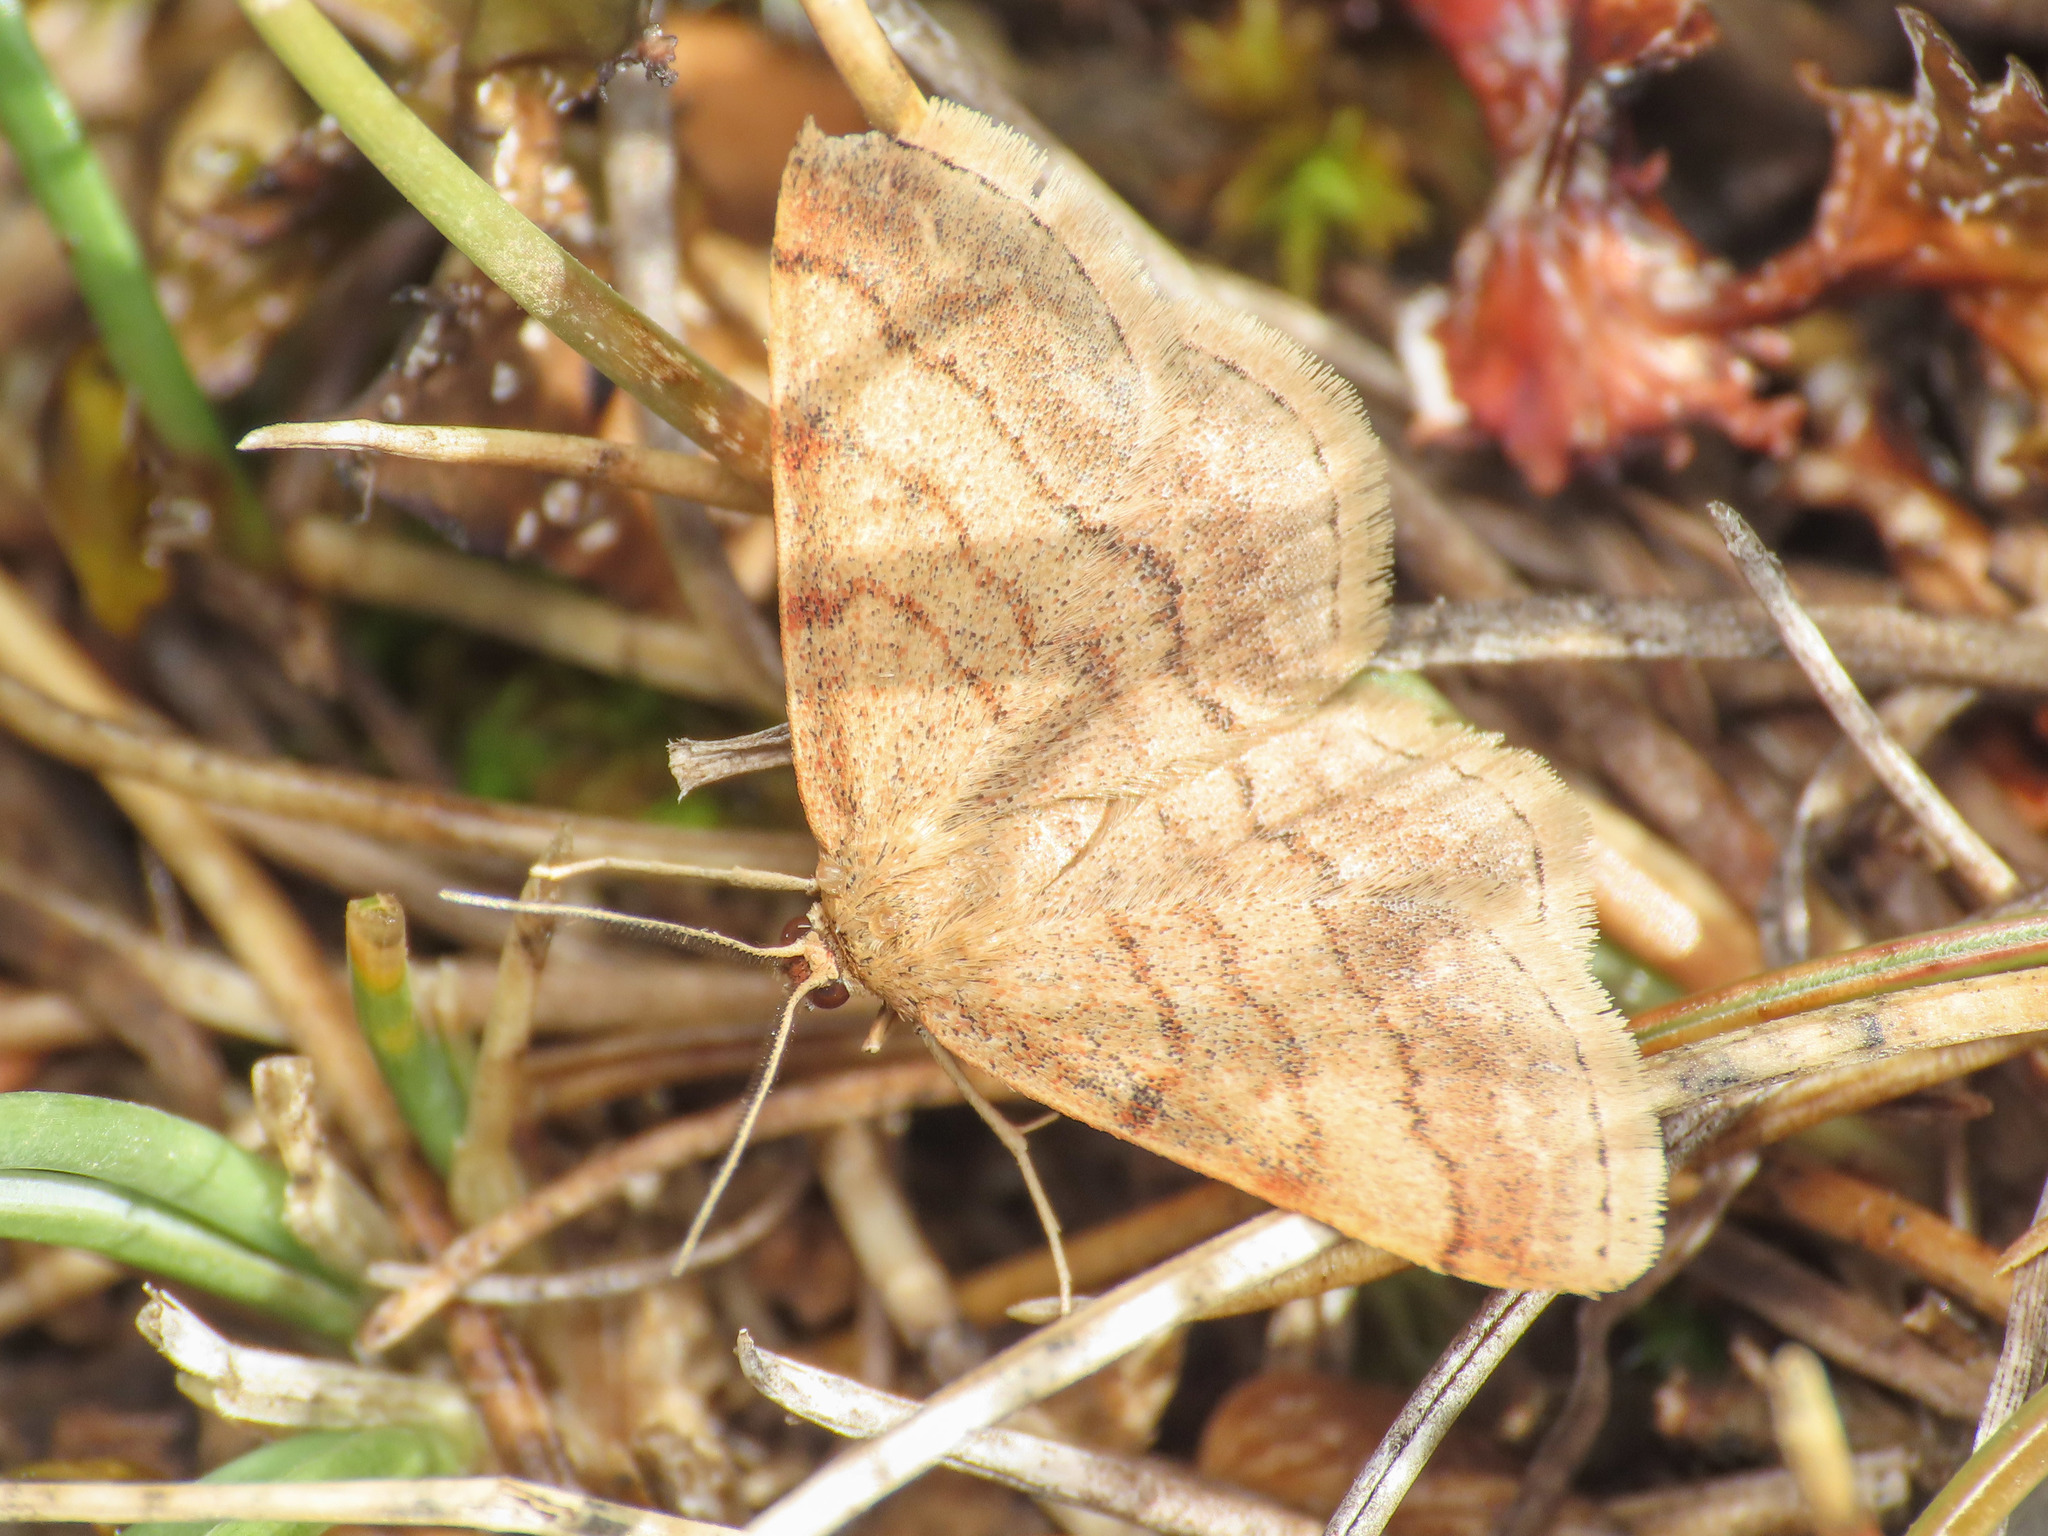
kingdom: Animalia
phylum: Arthropoda
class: Insecta
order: Lepidoptera
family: Geometridae
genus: Scopula
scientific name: Scopula rubiginata
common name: Tawny wave
